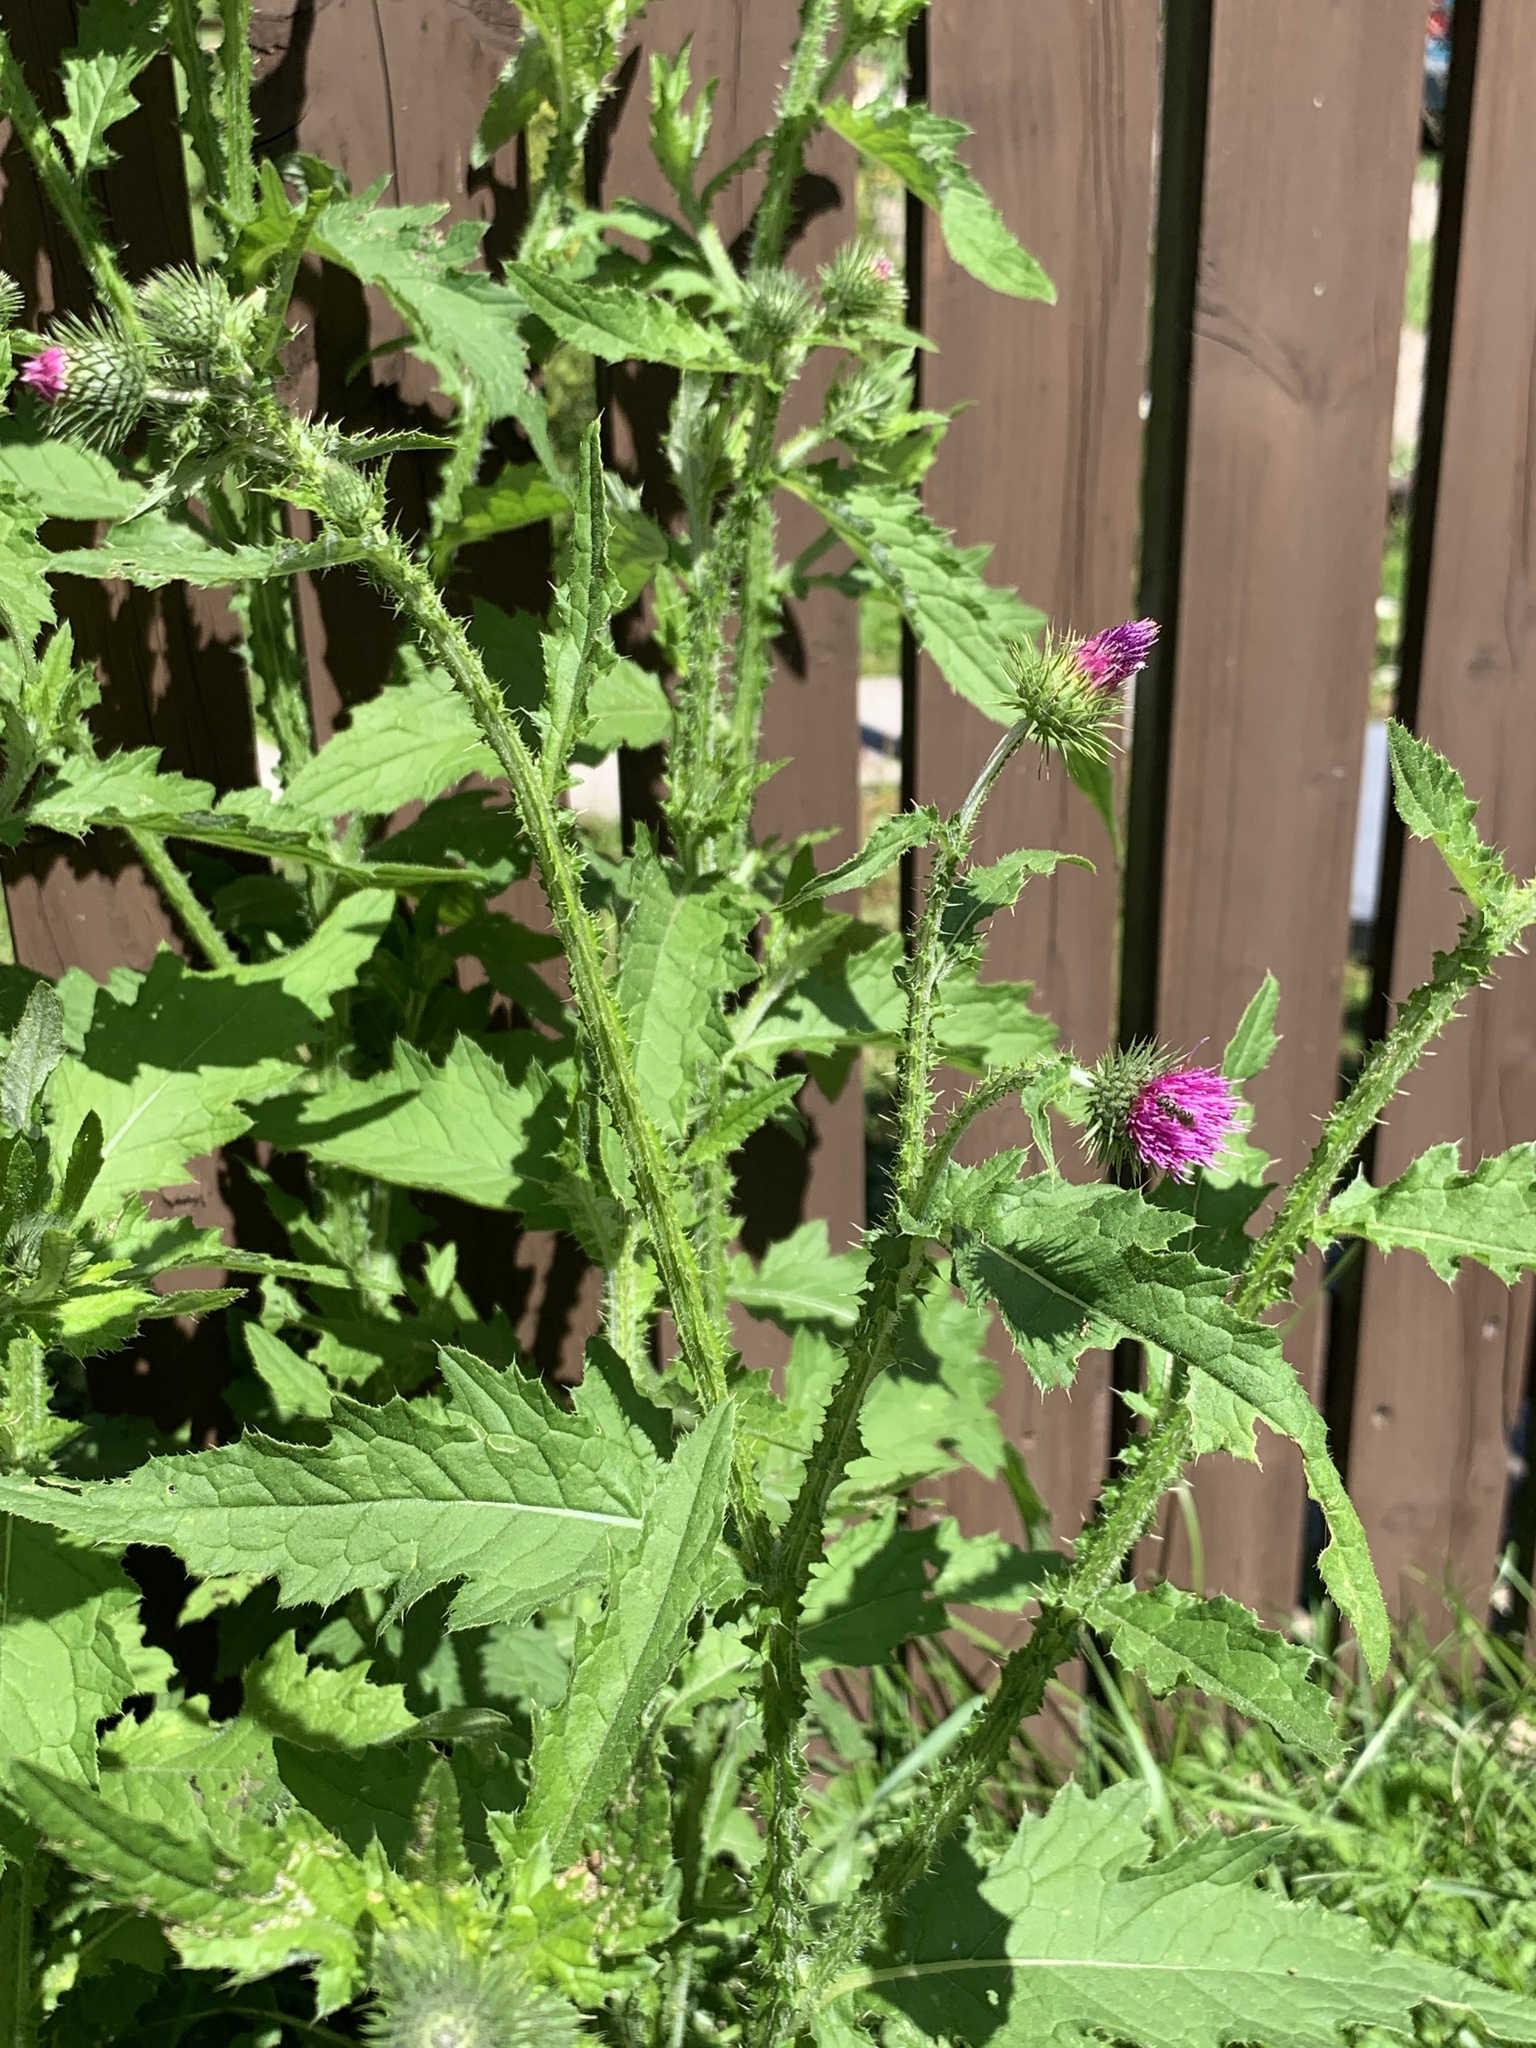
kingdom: Plantae
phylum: Tracheophyta
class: Magnoliopsida
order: Asterales
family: Asteraceae
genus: Carduus
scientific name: Carduus crispus
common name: Welted thistle
